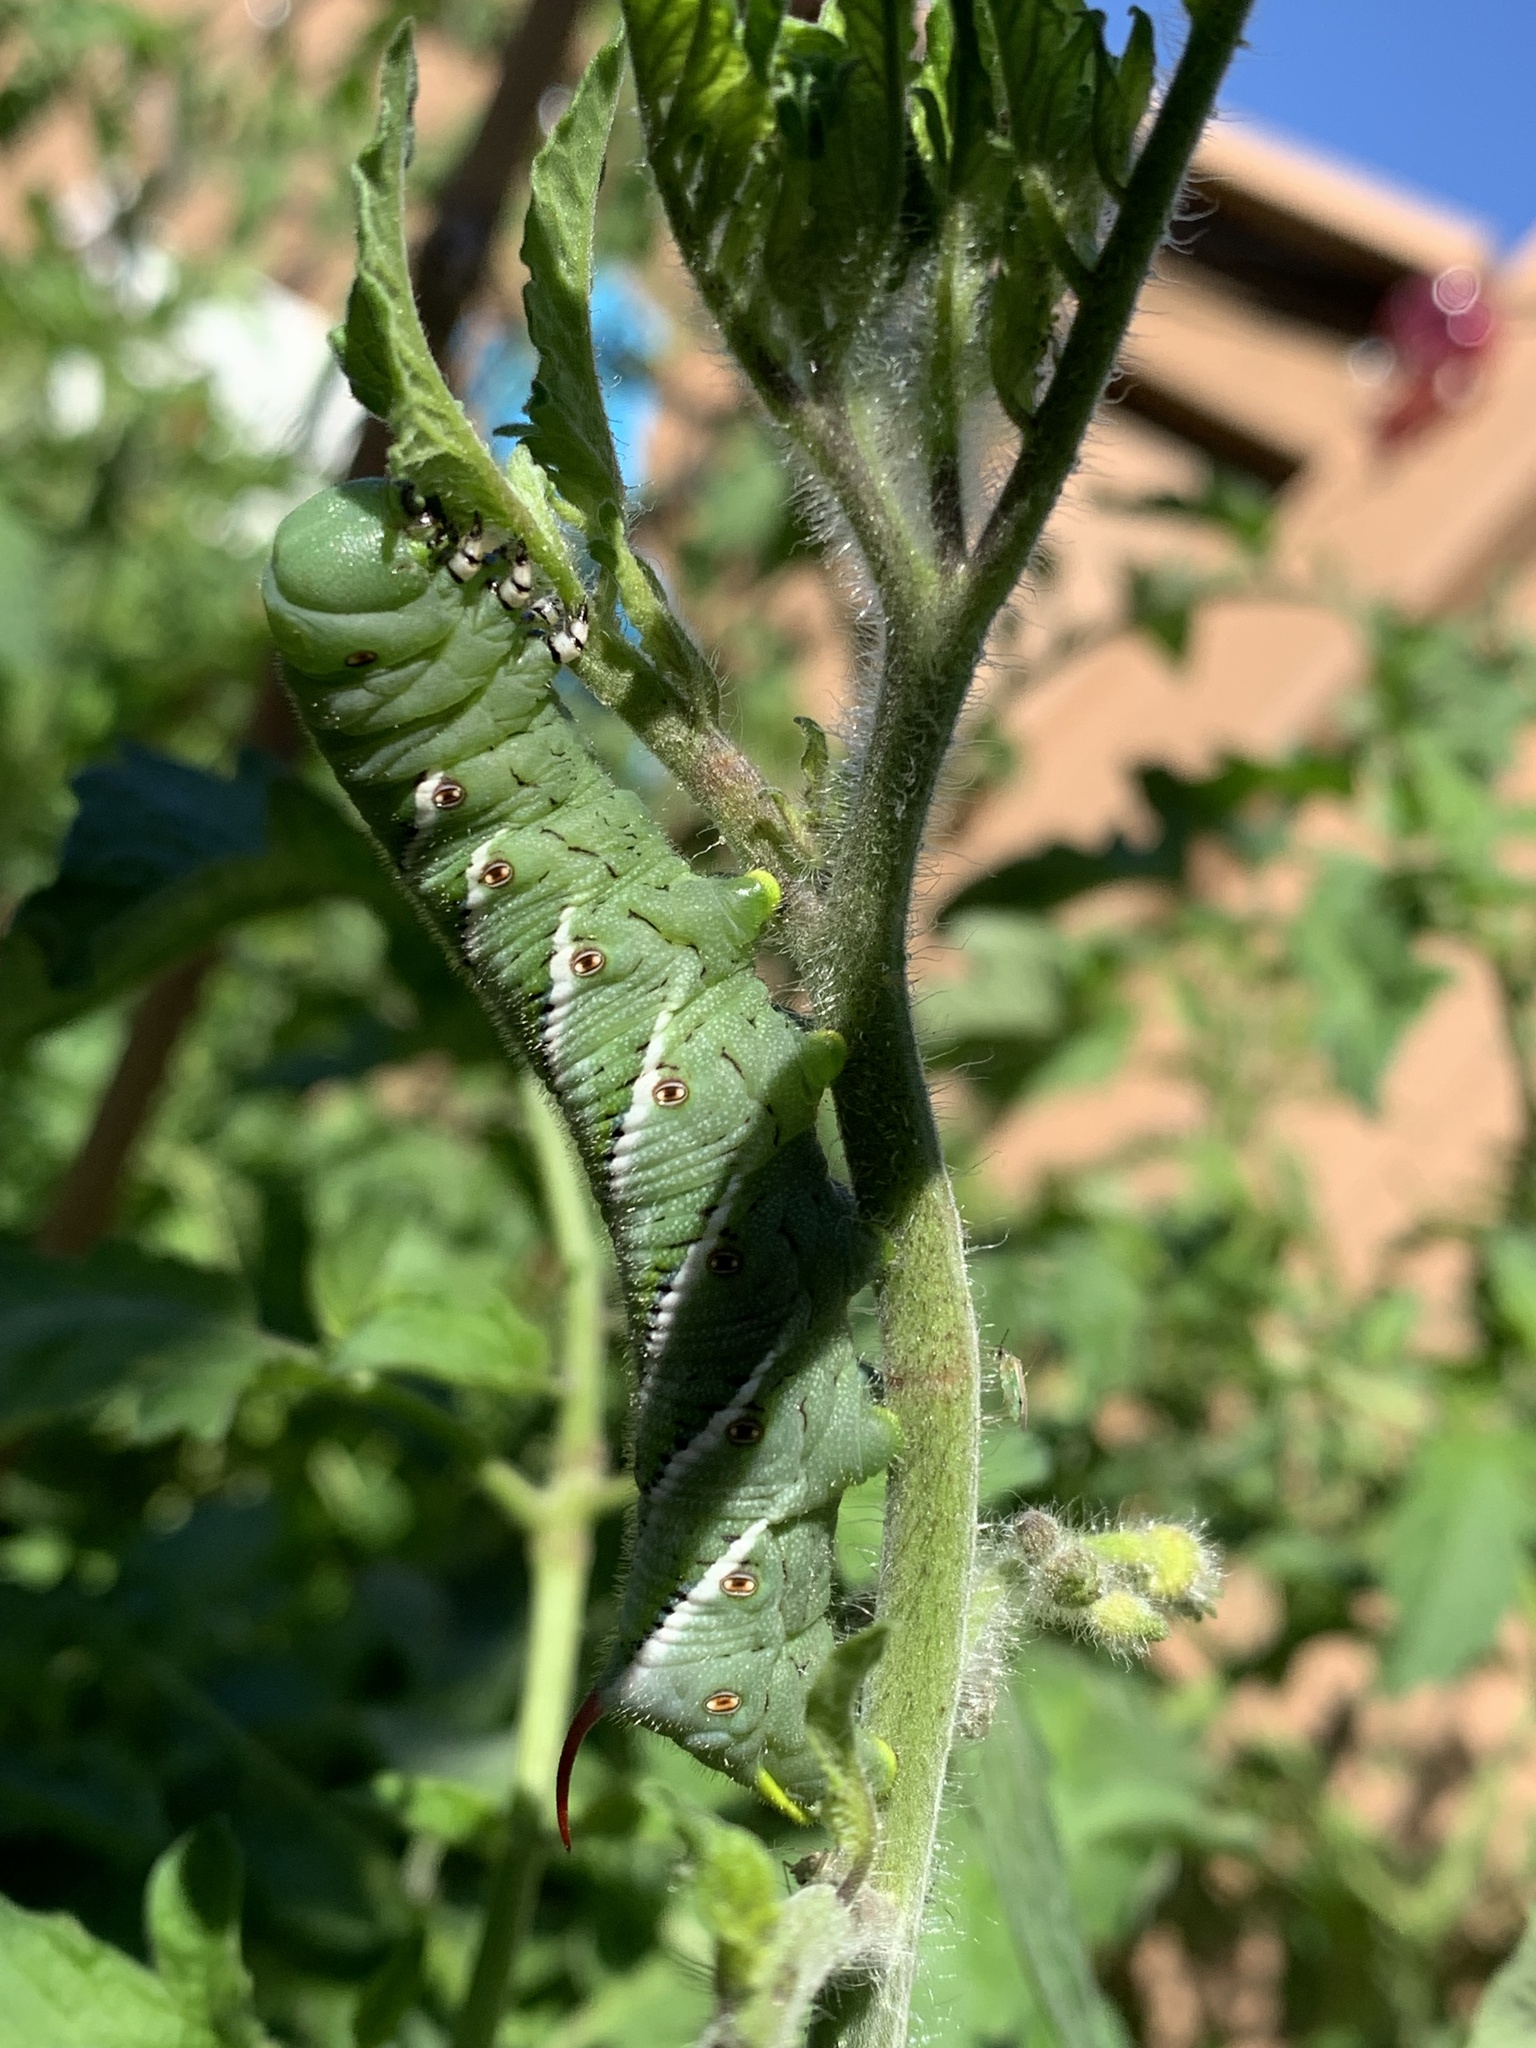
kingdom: Animalia
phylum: Arthropoda
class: Insecta
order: Lepidoptera
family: Sphingidae
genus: Manduca
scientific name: Manduca sexta
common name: Carolina sphinx
